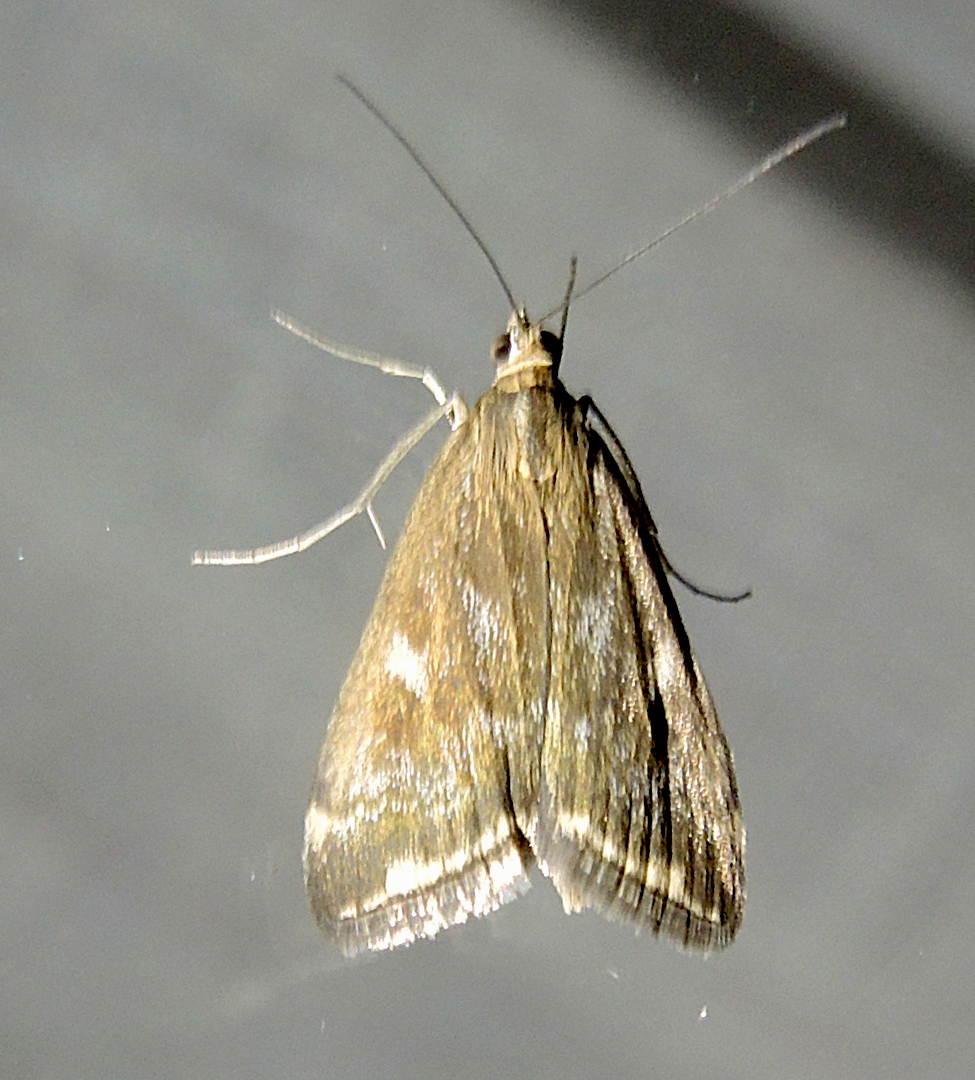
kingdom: Animalia
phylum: Arthropoda
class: Insecta
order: Lepidoptera
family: Crambidae
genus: Loxostege
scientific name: Loxostege sticticalis
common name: Crambid moth
